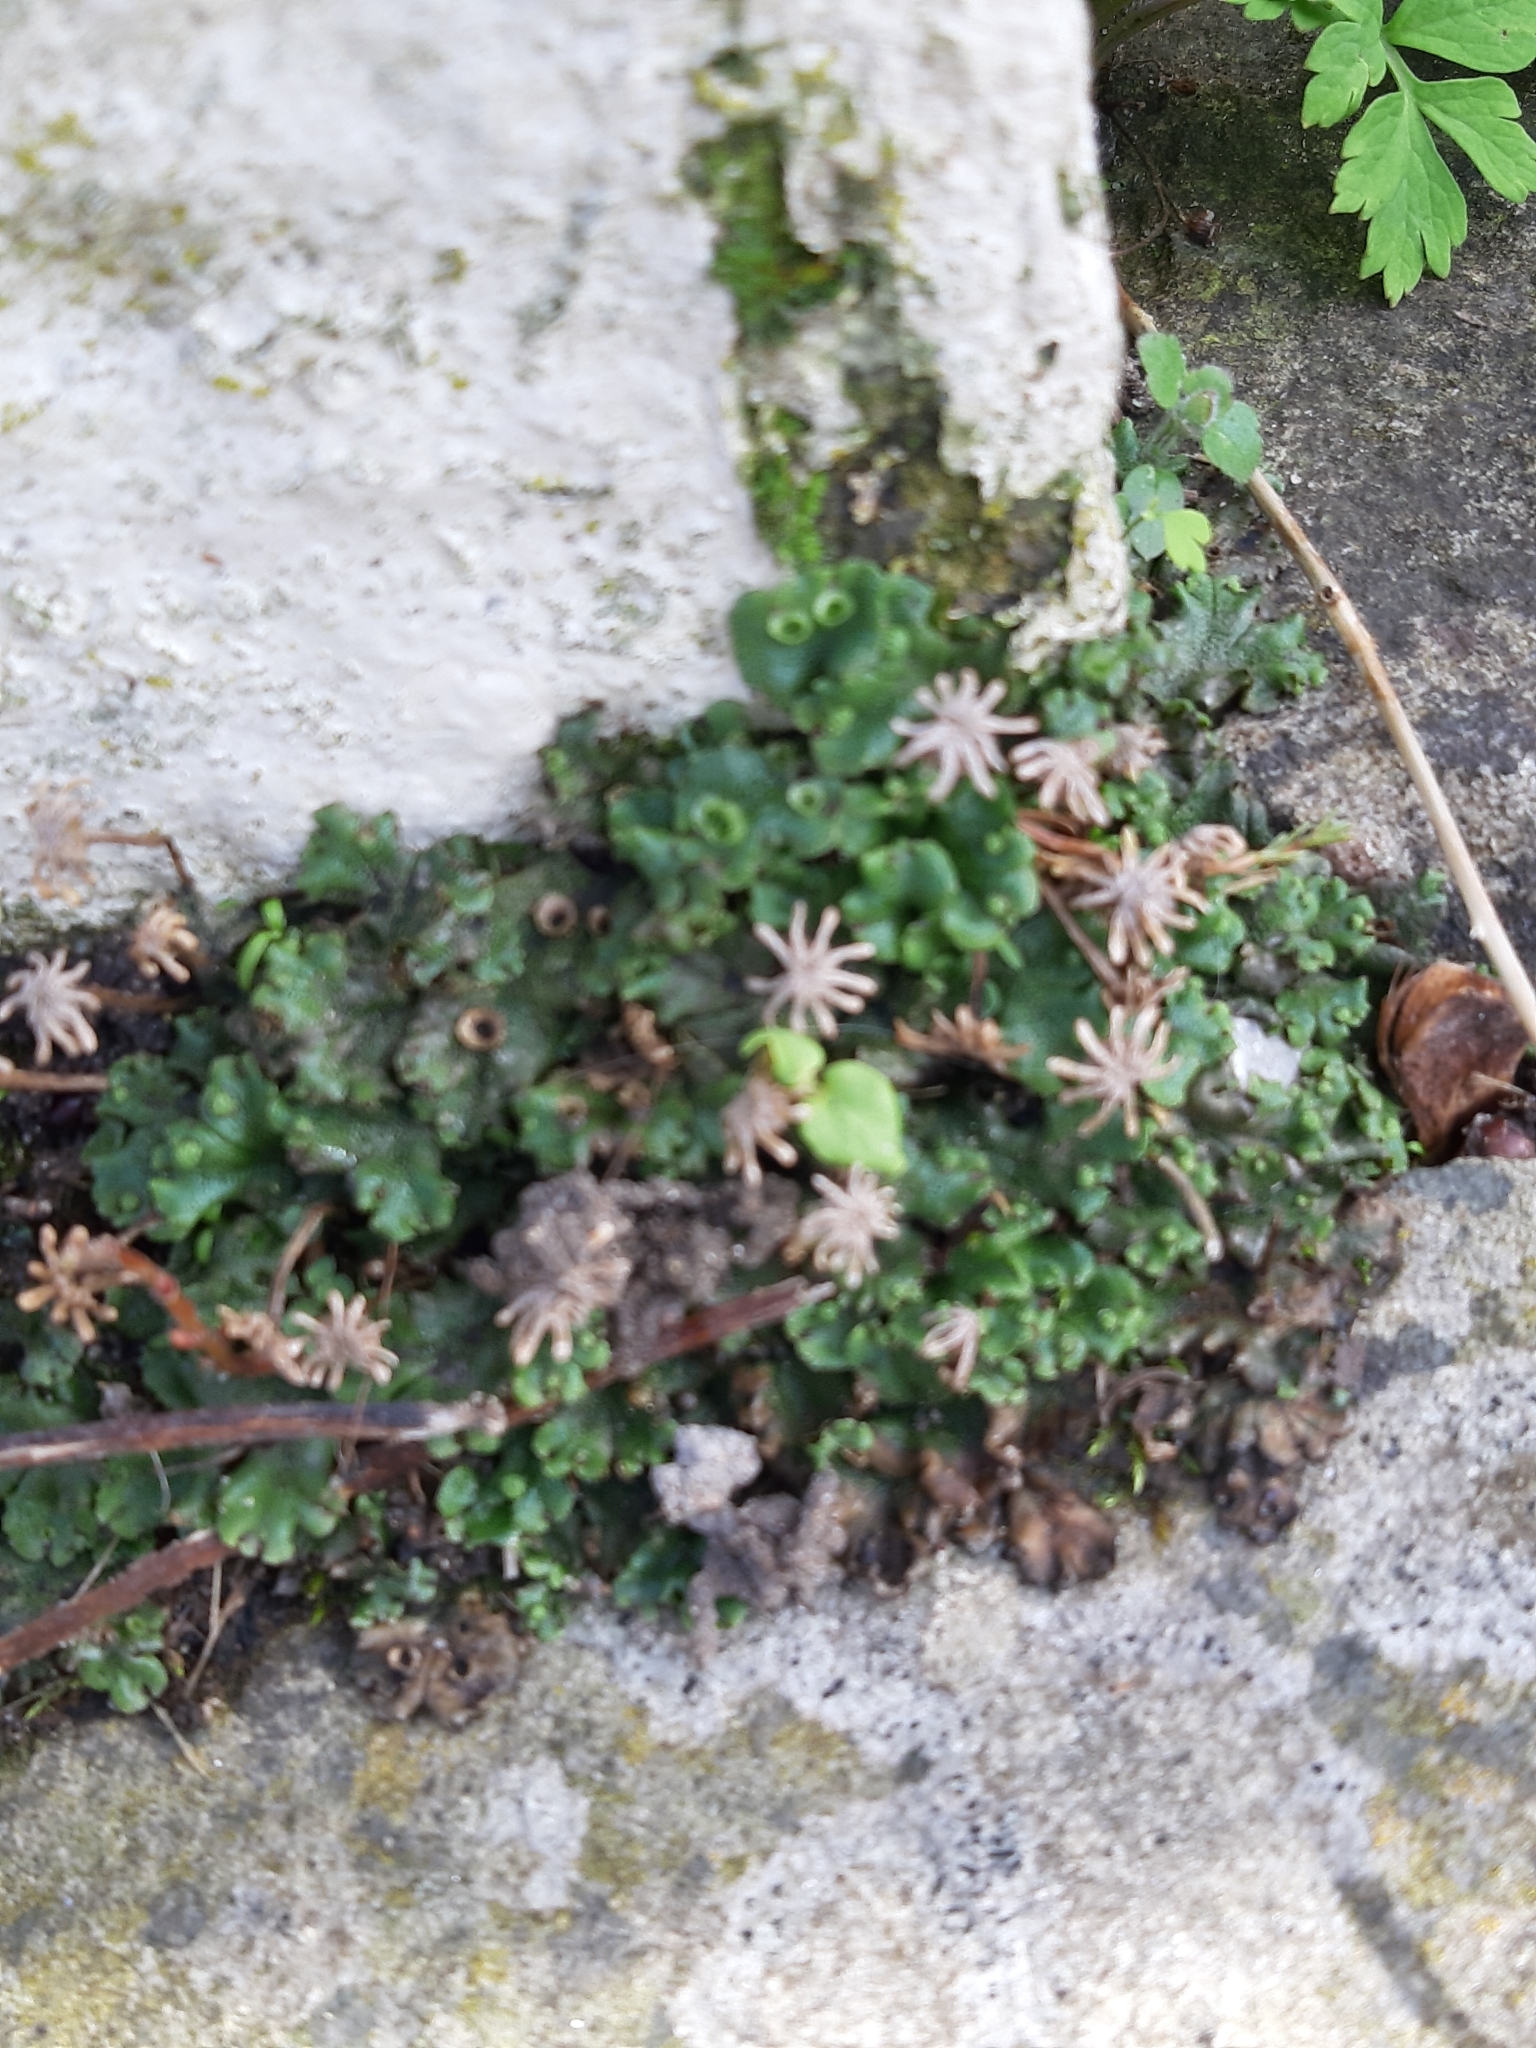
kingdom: Plantae
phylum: Marchantiophyta
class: Marchantiopsida
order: Marchantiales
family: Marchantiaceae
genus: Marchantia
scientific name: Marchantia polymorpha
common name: Common liverwort
